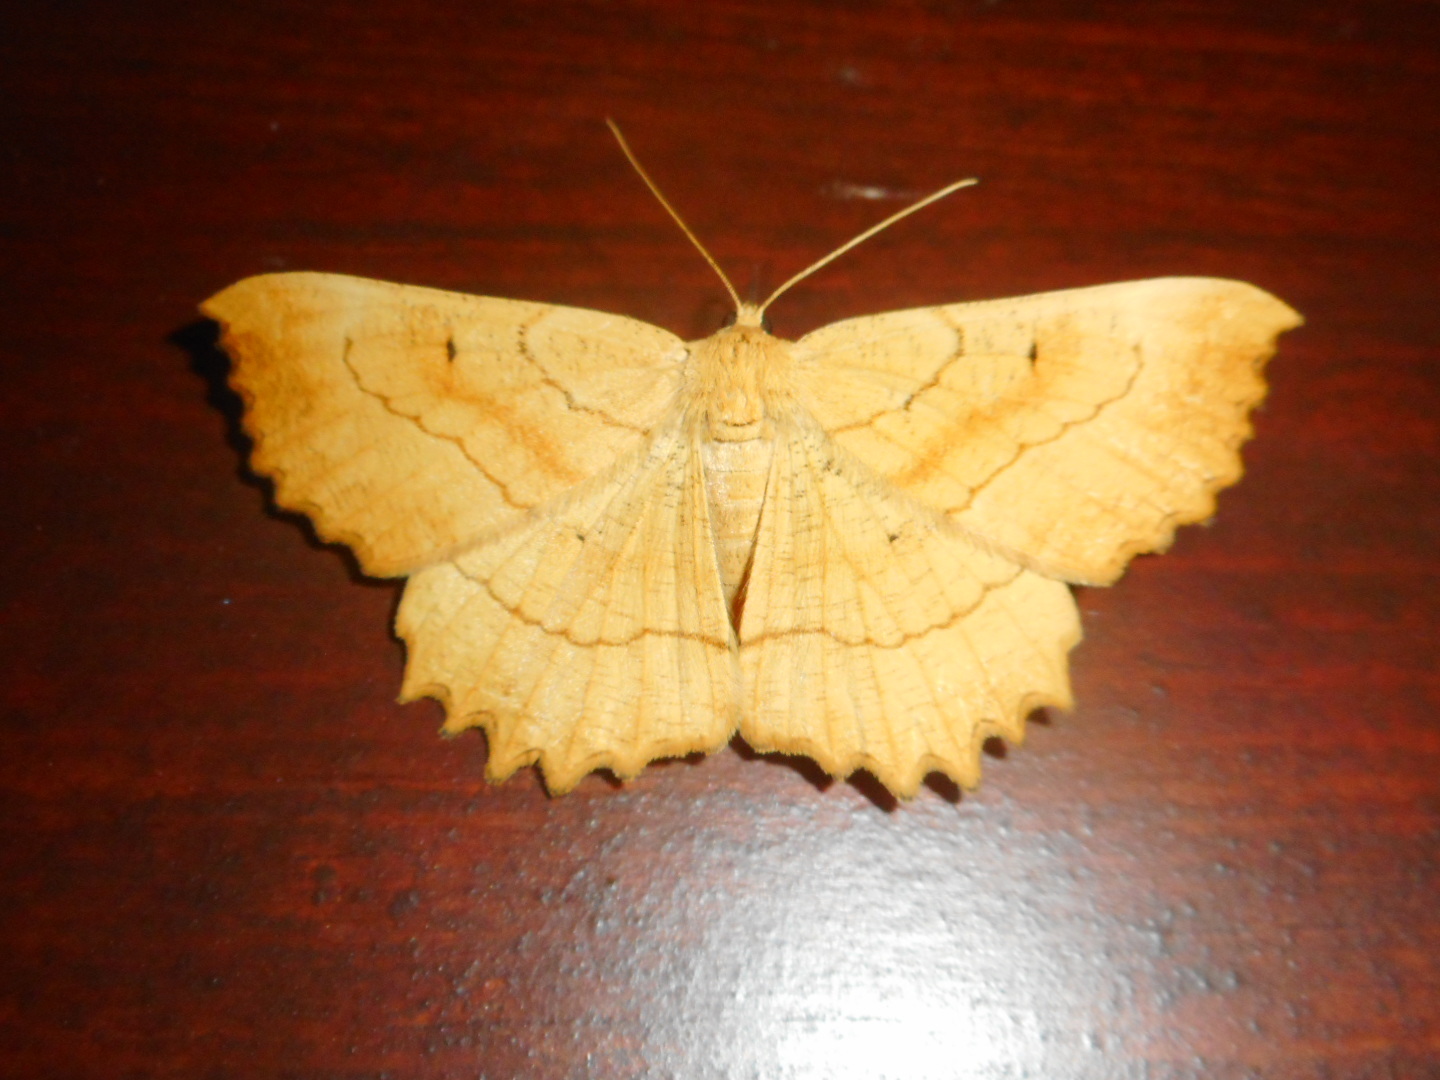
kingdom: Animalia
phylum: Arthropoda
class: Insecta
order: Lepidoptera
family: Geometridae
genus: Ctenognophos
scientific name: Ctenognophos grandinaria
